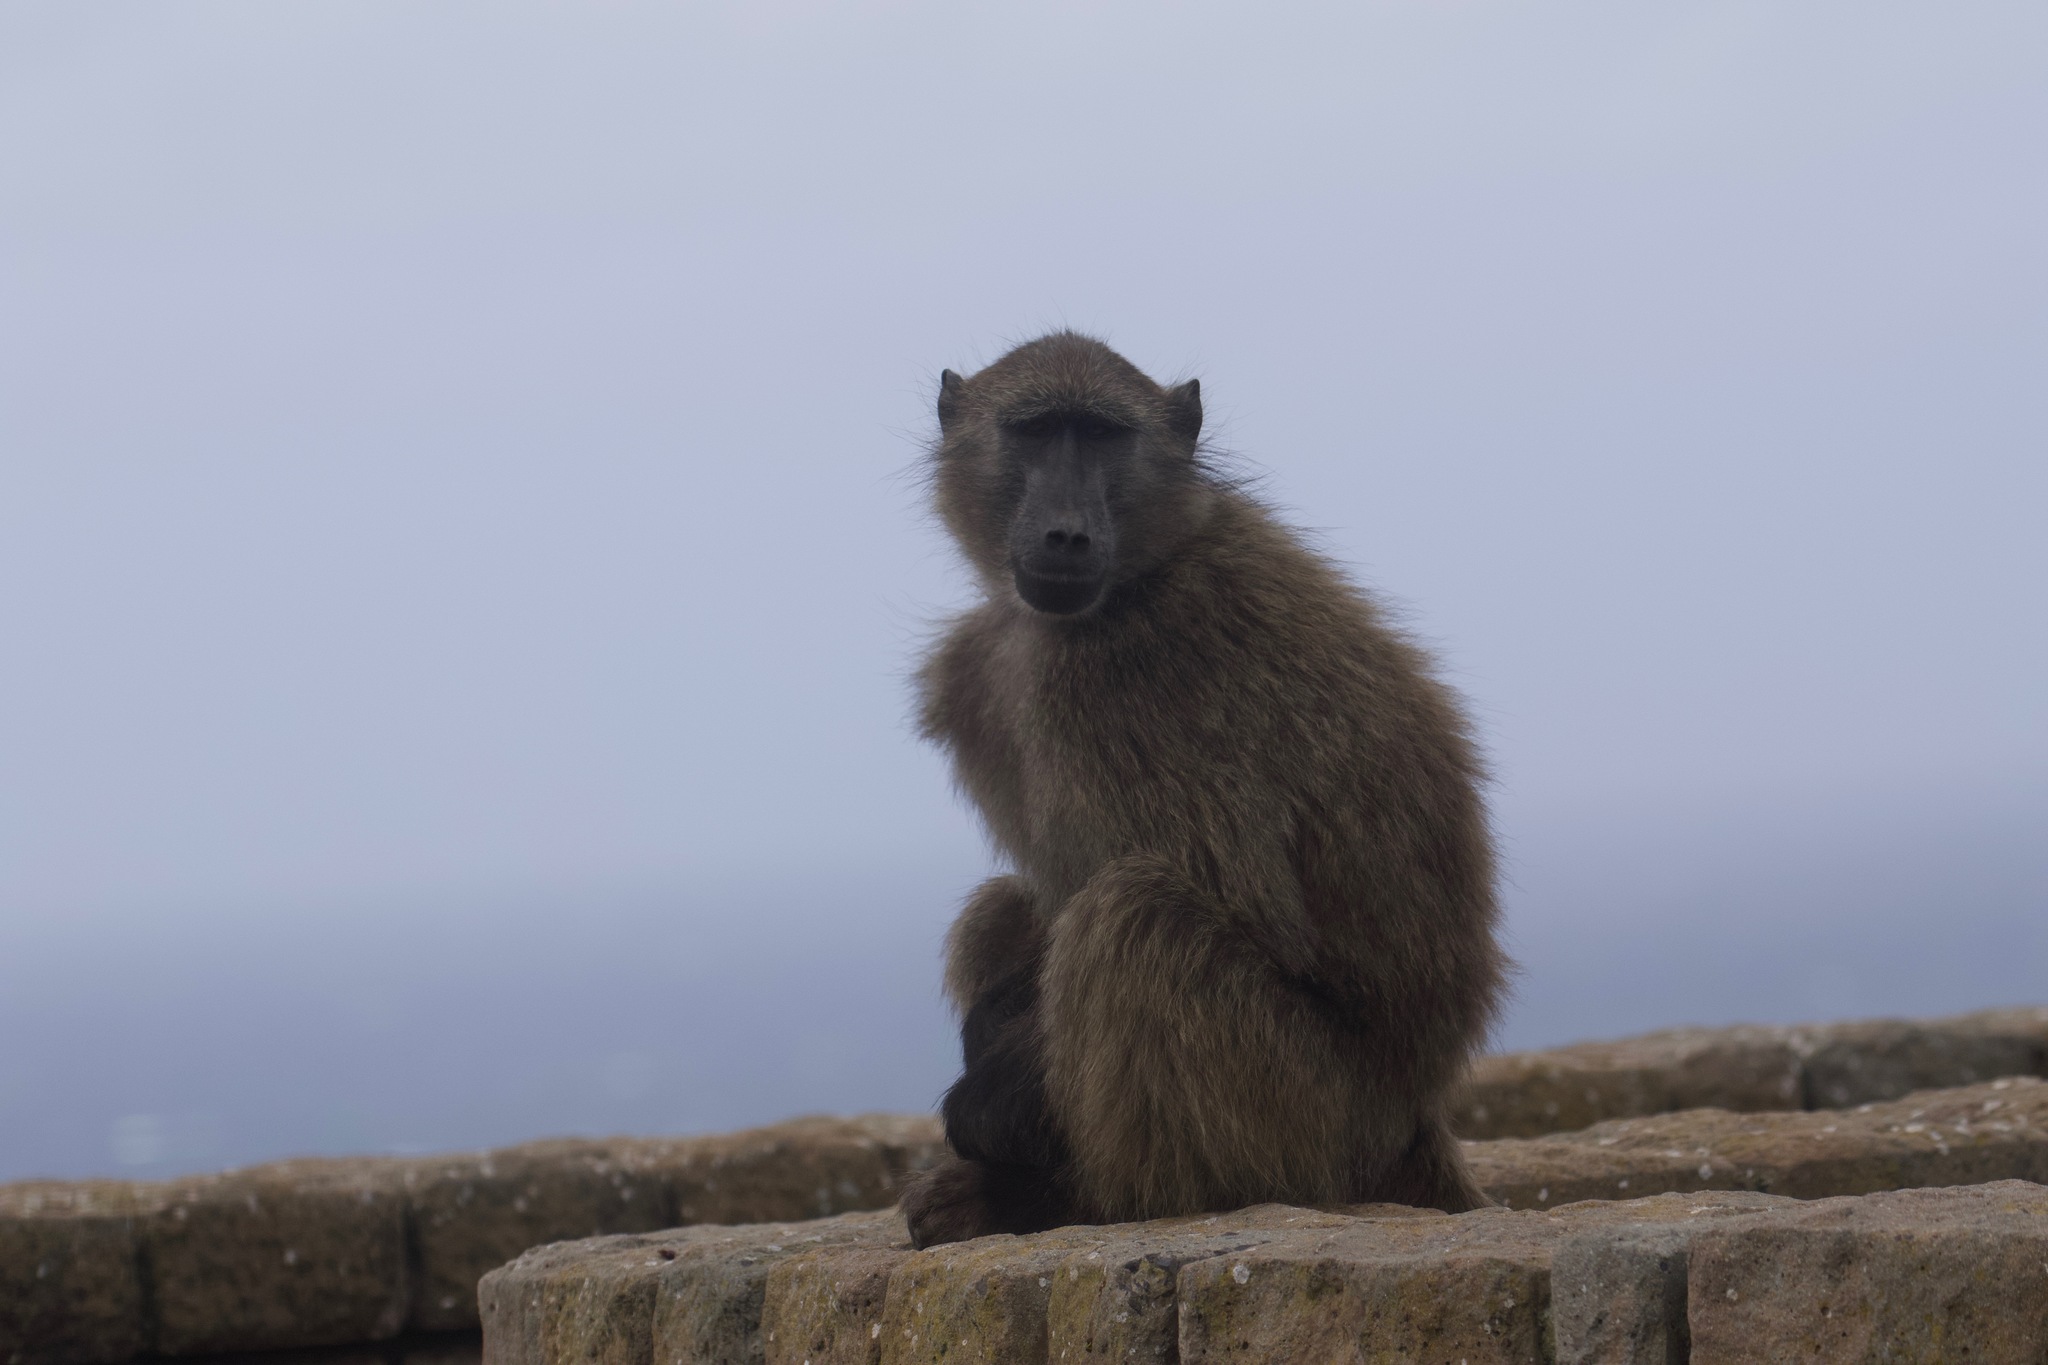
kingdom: Animalia
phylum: Chordata
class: Mammalia
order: Primates
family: Cercopithecidae
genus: Papio
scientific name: Papio ursinus
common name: Chacma baboon
